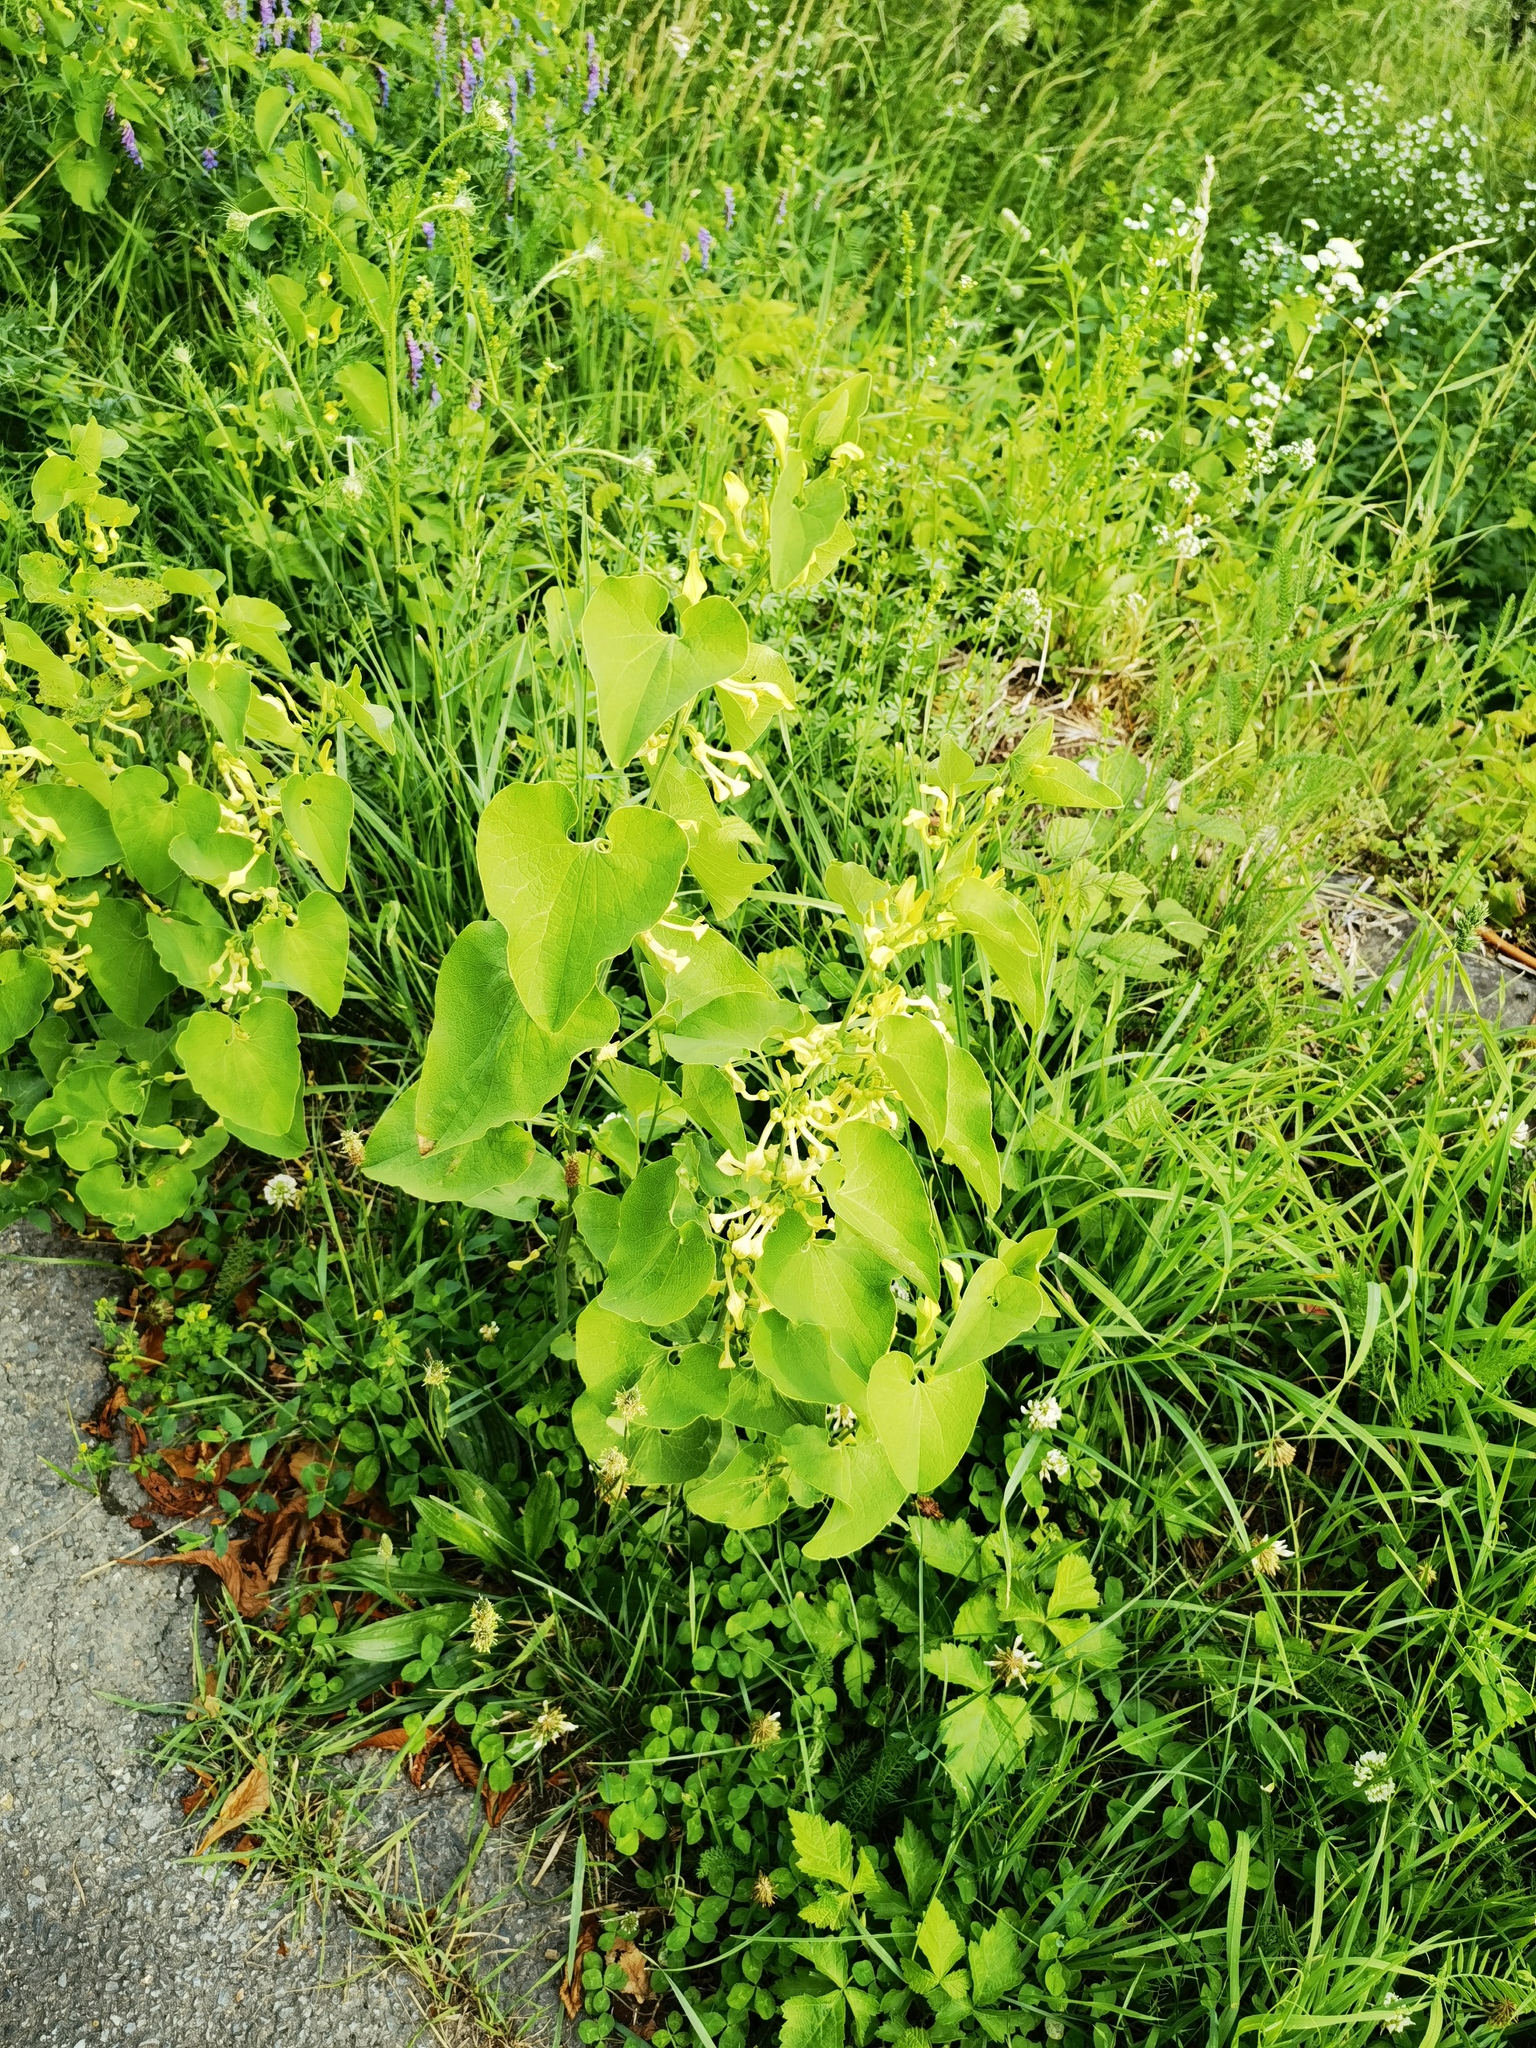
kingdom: Plantae
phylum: Tracheophyta
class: Magnoliopsida
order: Piperales
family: Aristolochiaceae
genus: Aristolochia
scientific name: Aristolochia clematitis
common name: Birthwort
